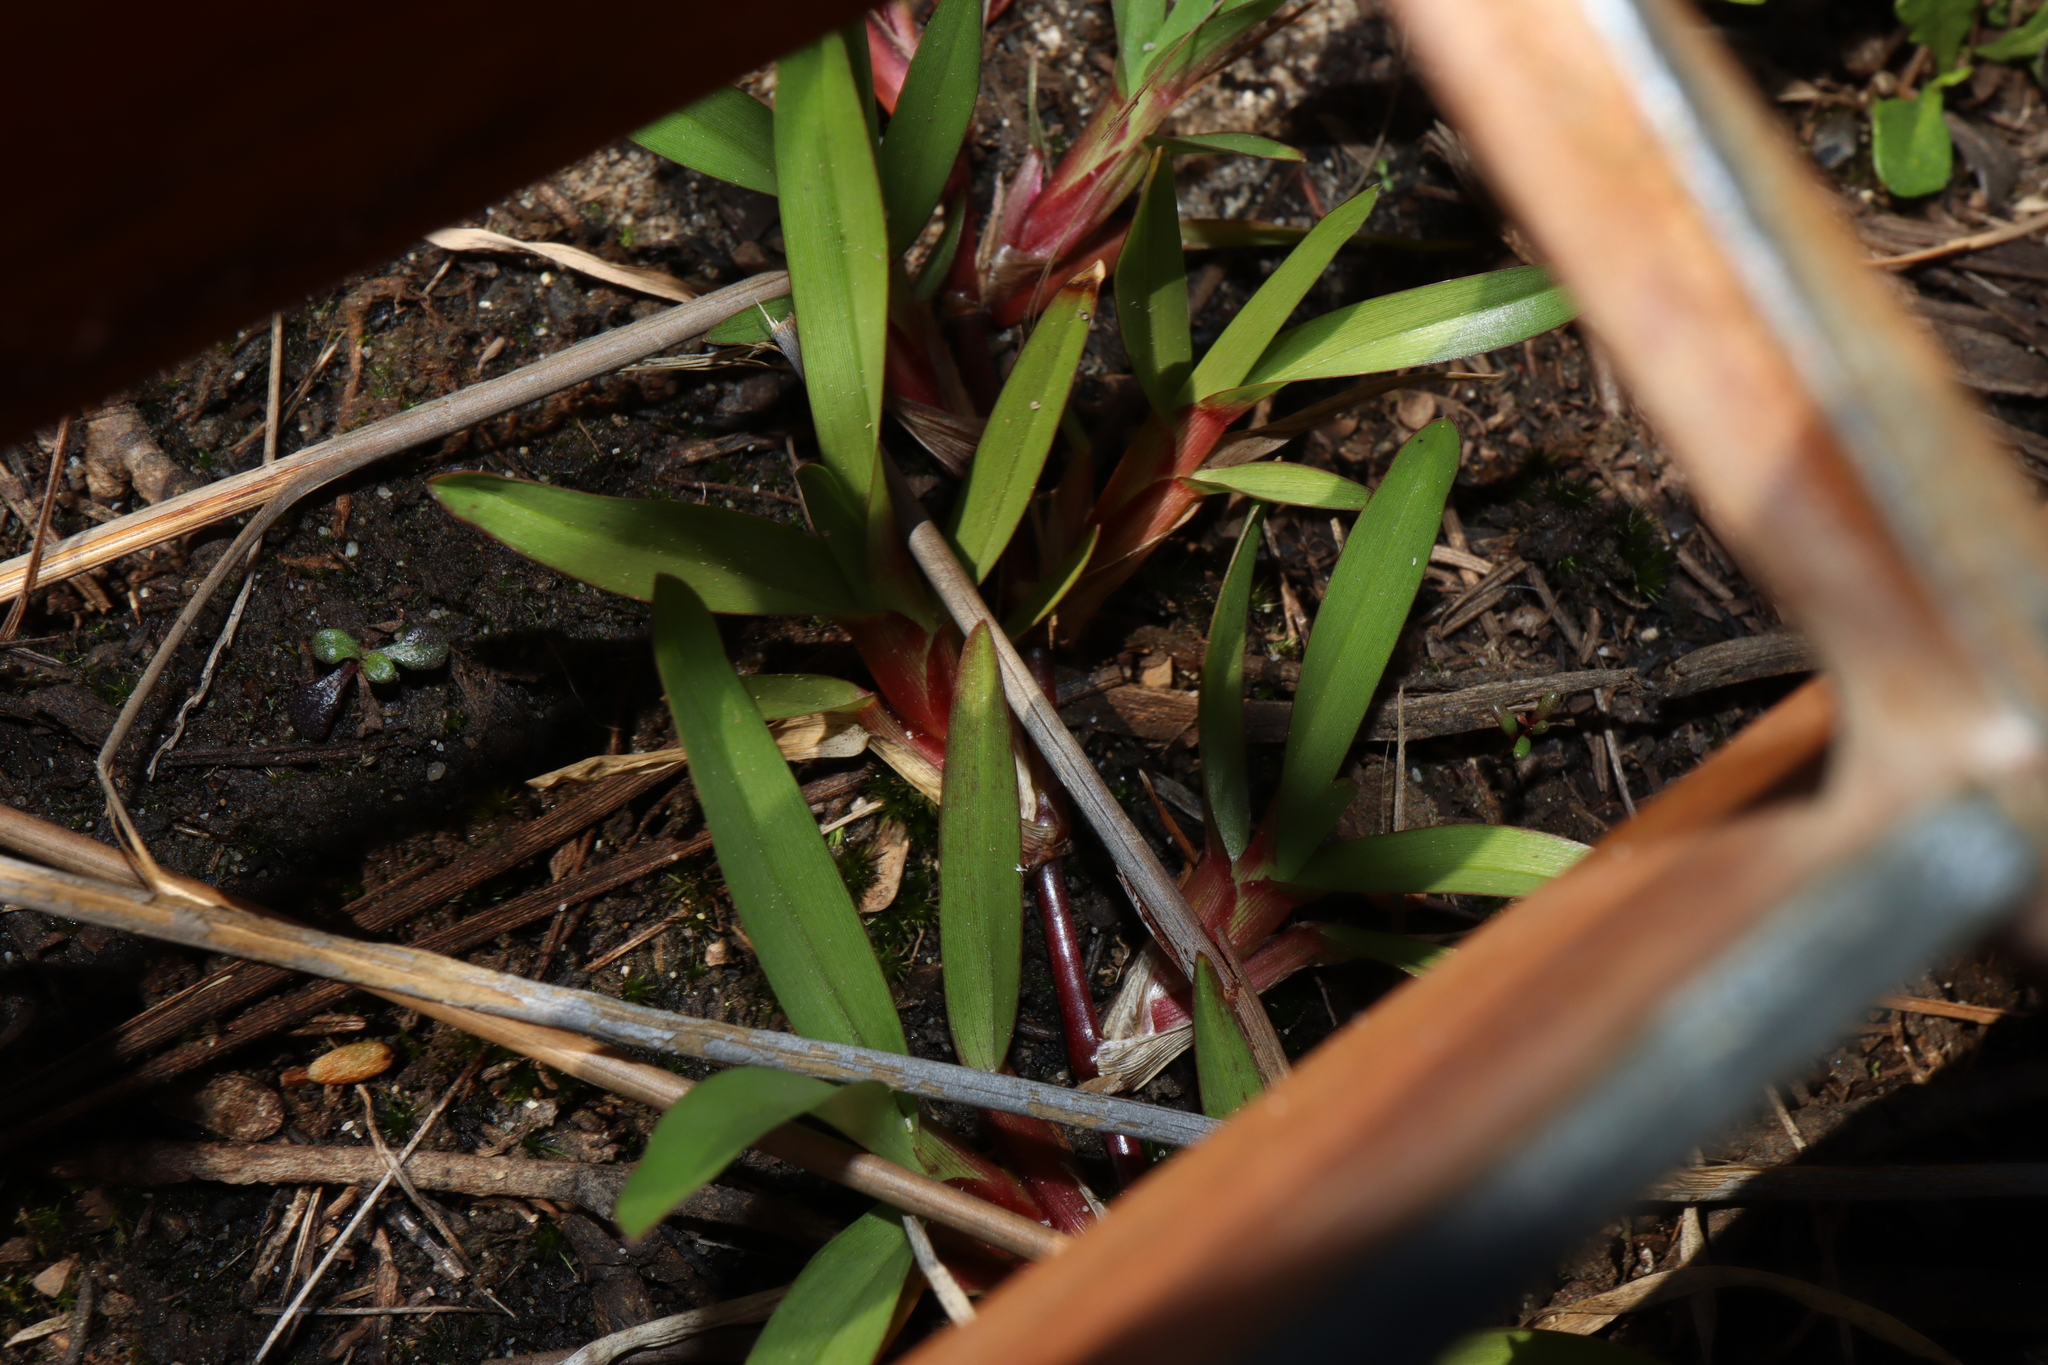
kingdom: Plantae
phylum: Tracheophyta
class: Liliopsida
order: Poales
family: Poaceae
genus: Stenotaphrum
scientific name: Stenotaphrum secundatum
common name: St. augustine grass
